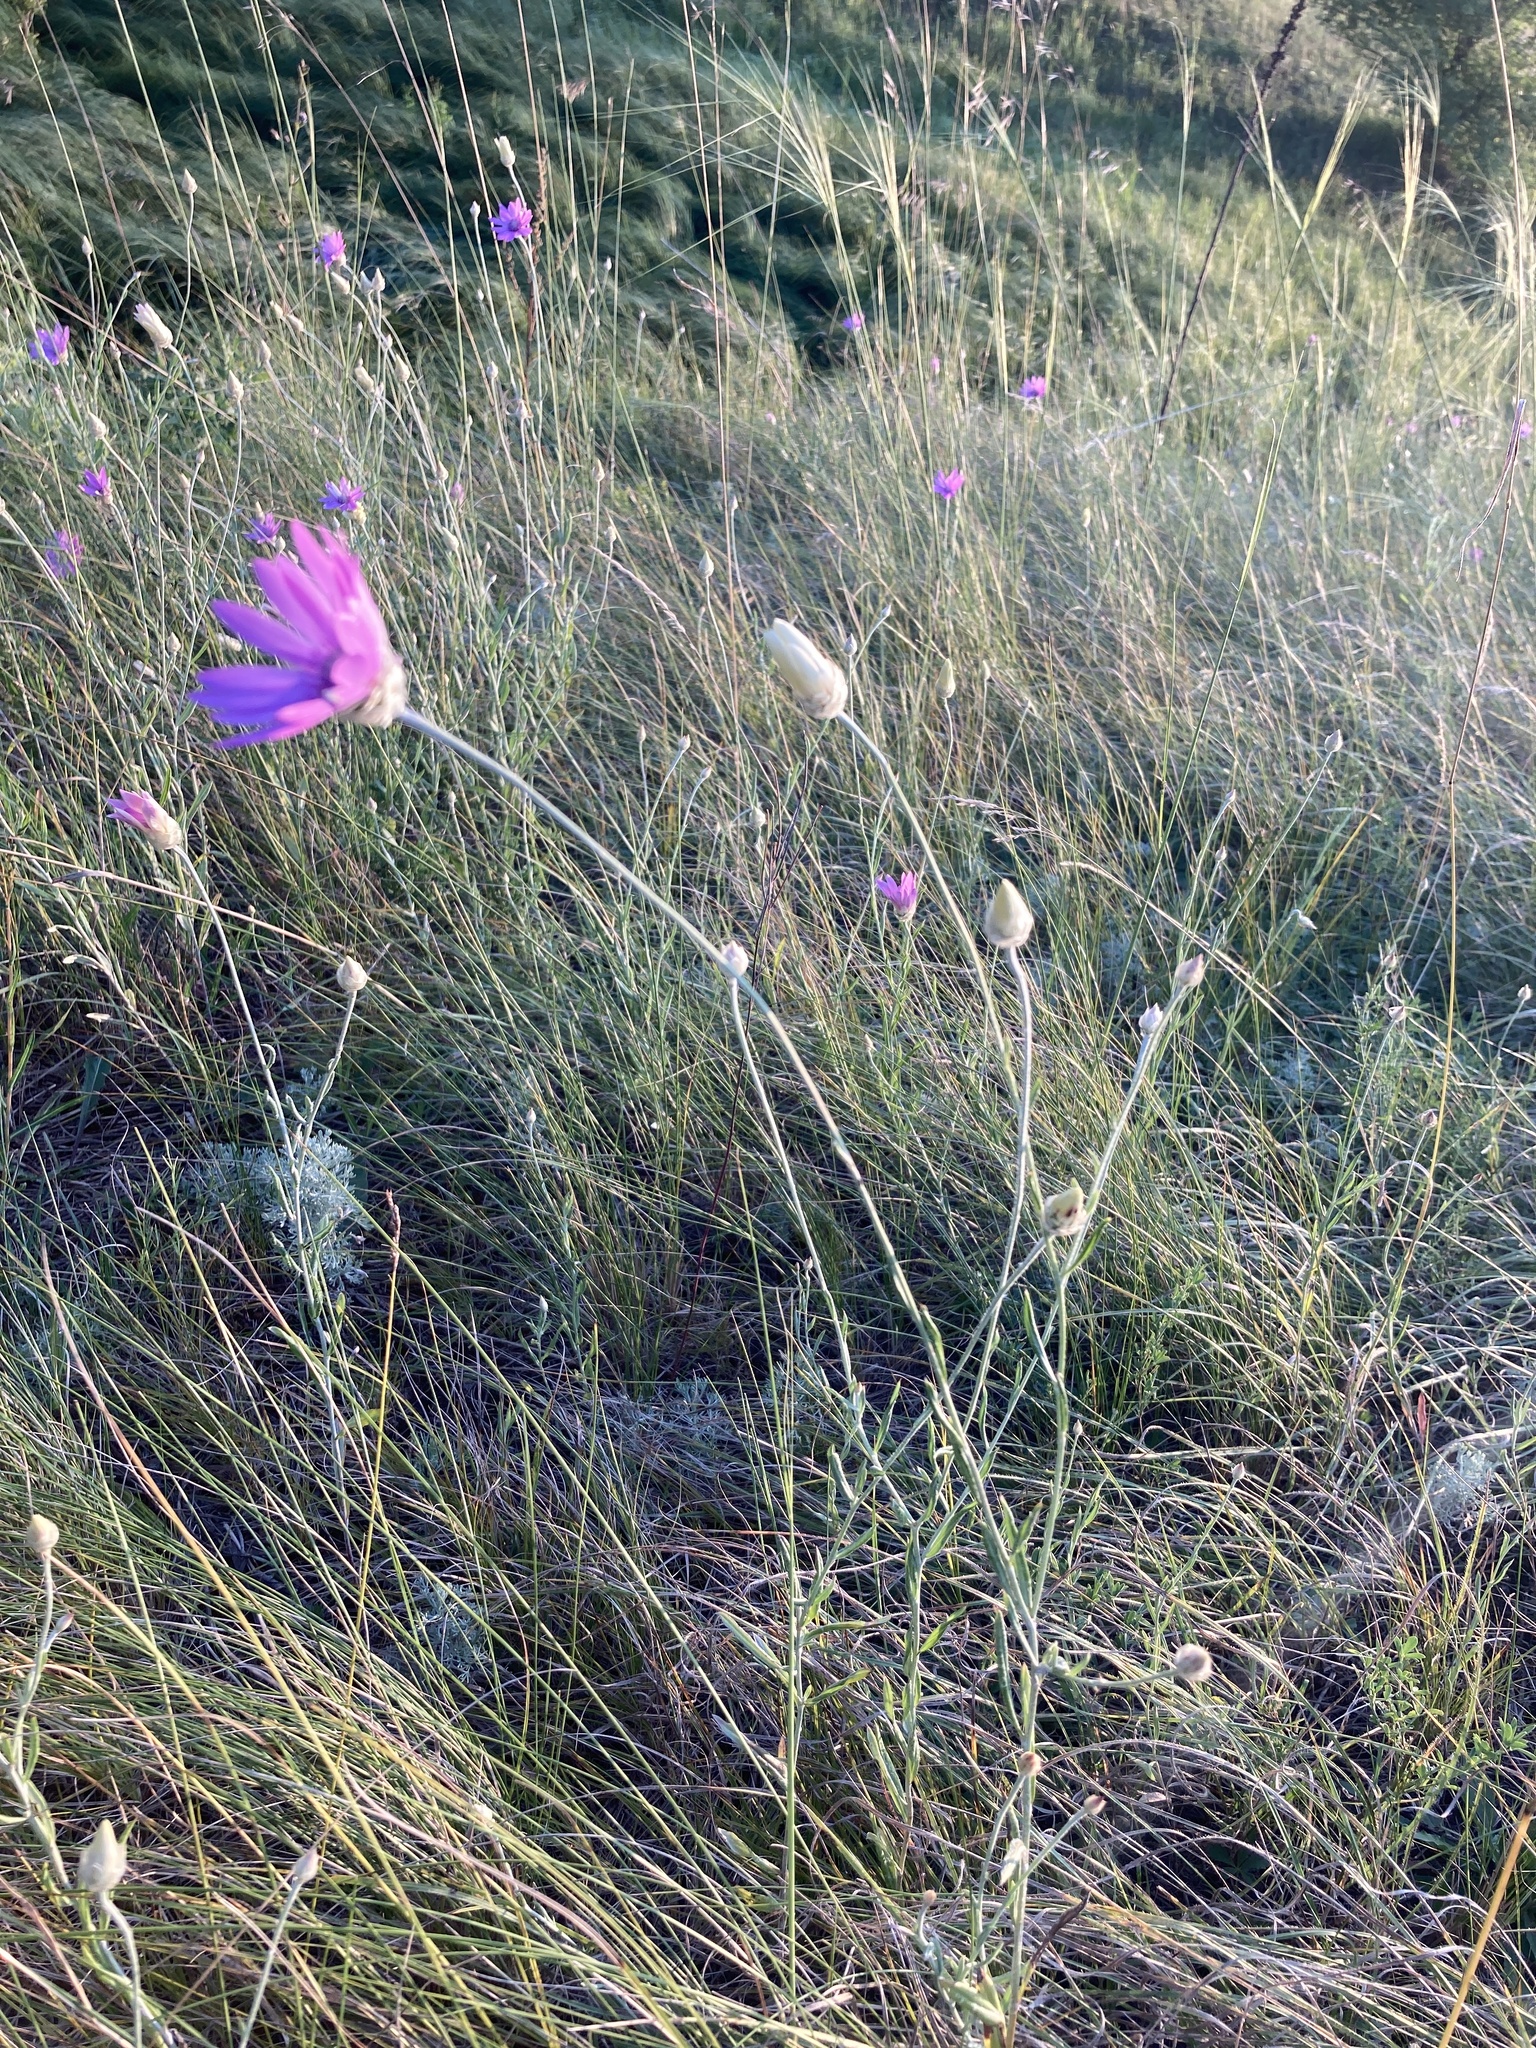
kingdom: Plantae
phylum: Tracheophyta
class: Magnoliopsida
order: Asterales
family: Asteraceae
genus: Xeranthemum
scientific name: Xeranthemum annuum
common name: Immortelle
